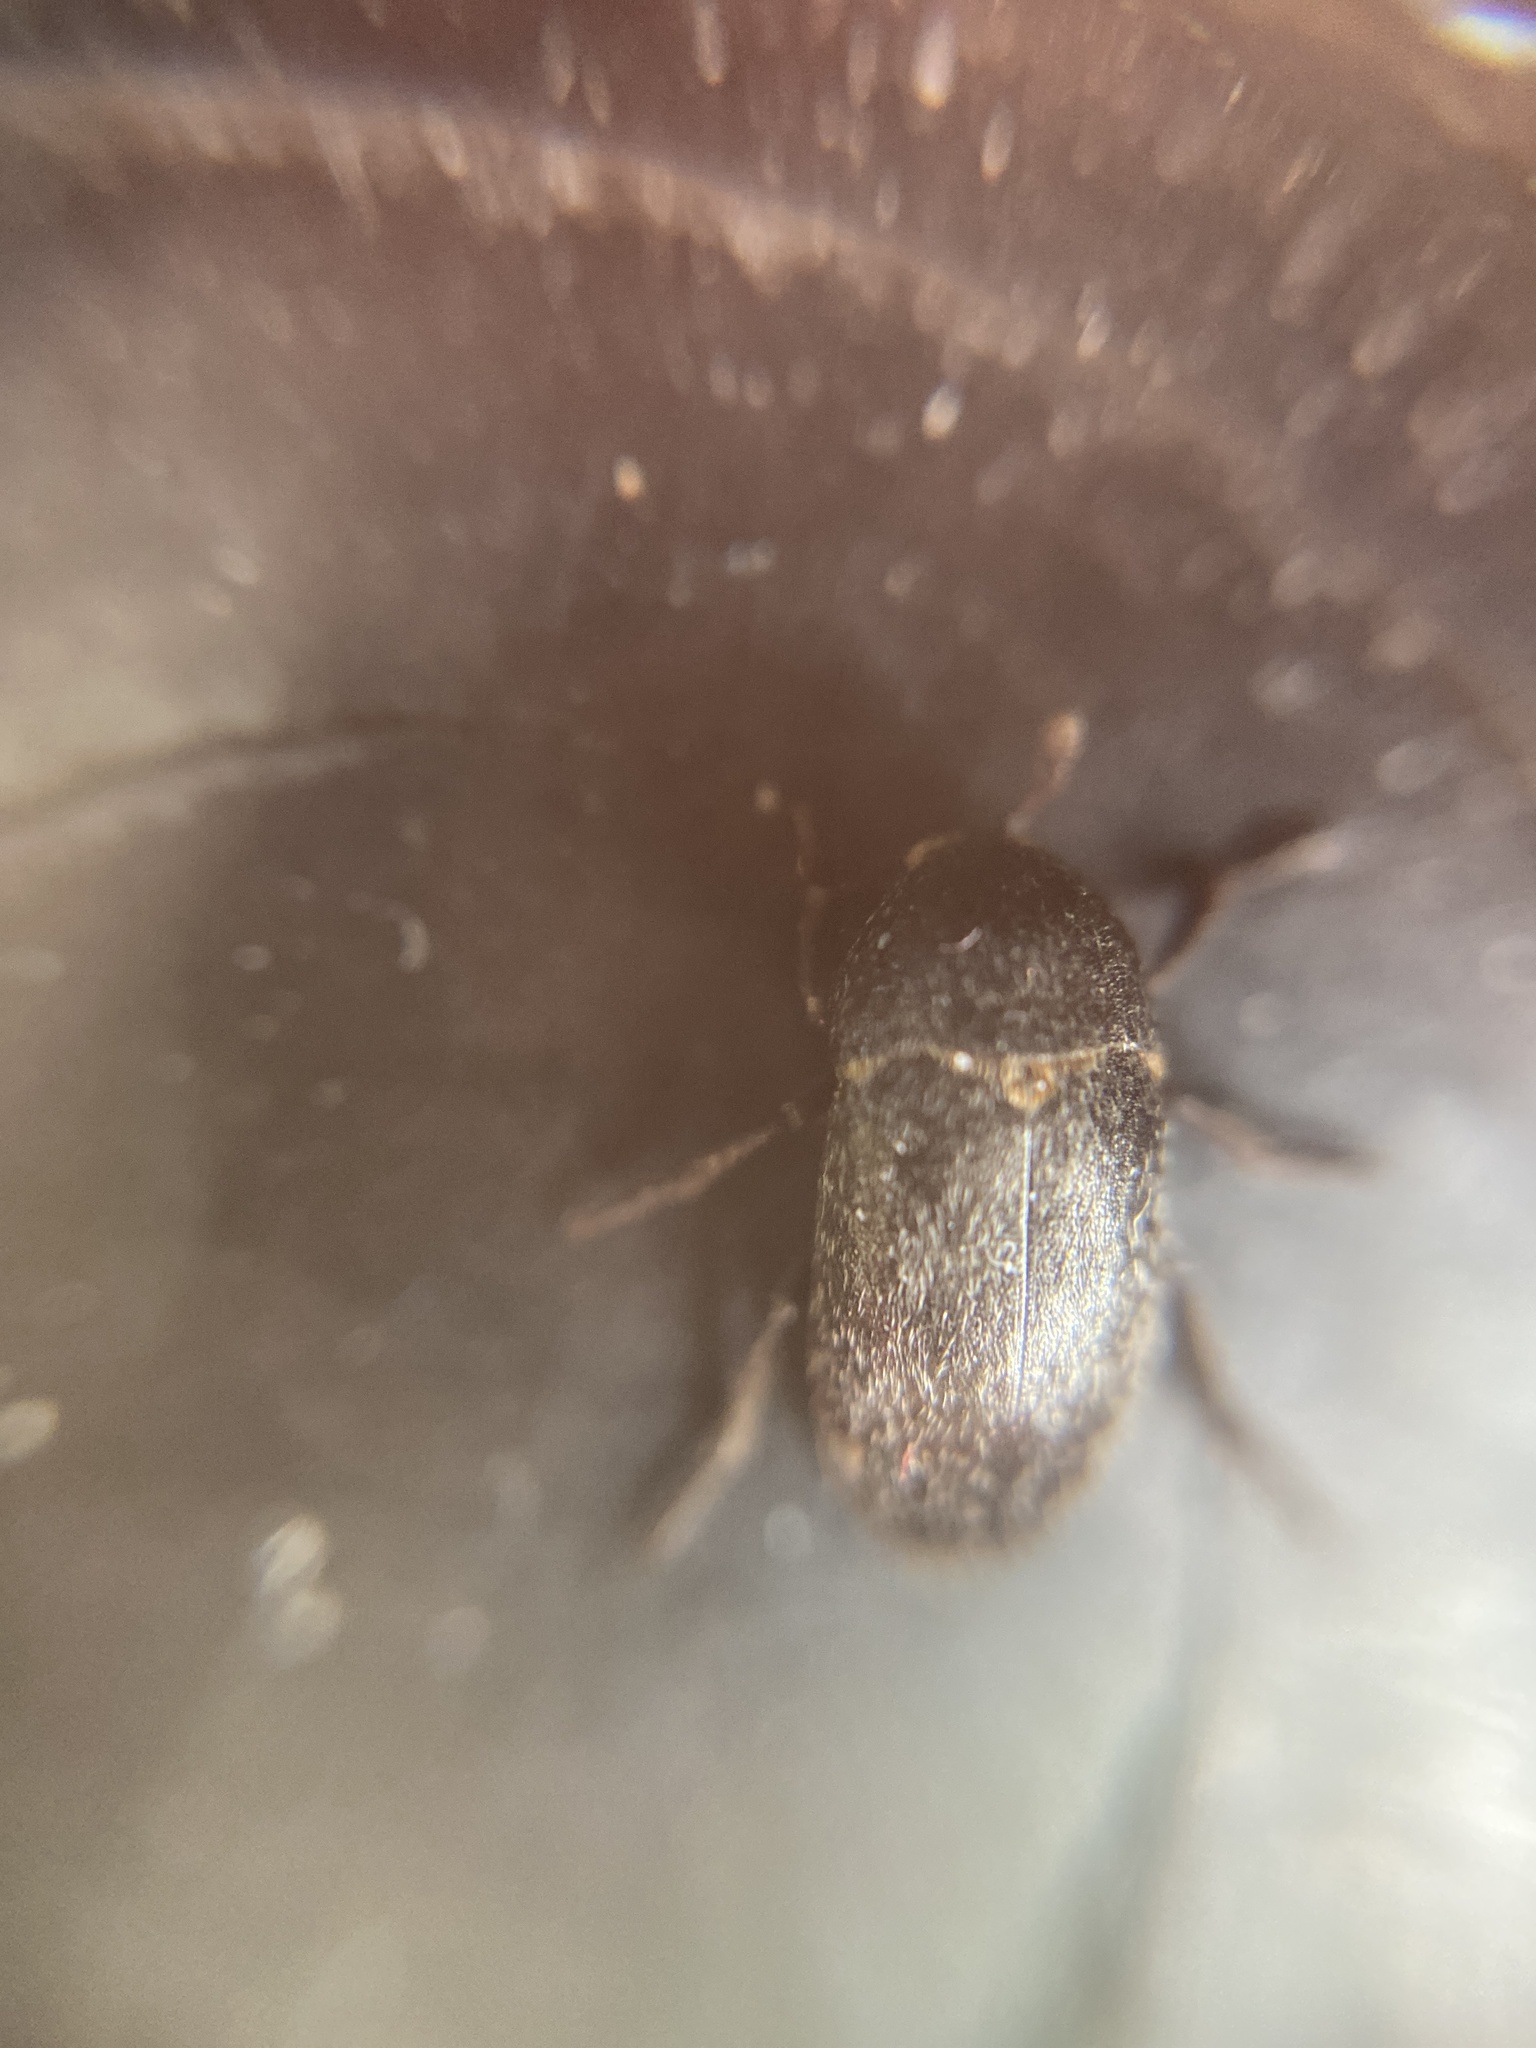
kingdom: Animalia
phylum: Arthropoda
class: Insecta
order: Coleoptera
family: Dermestidae
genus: Dermestes
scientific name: Dermestes laniarius
